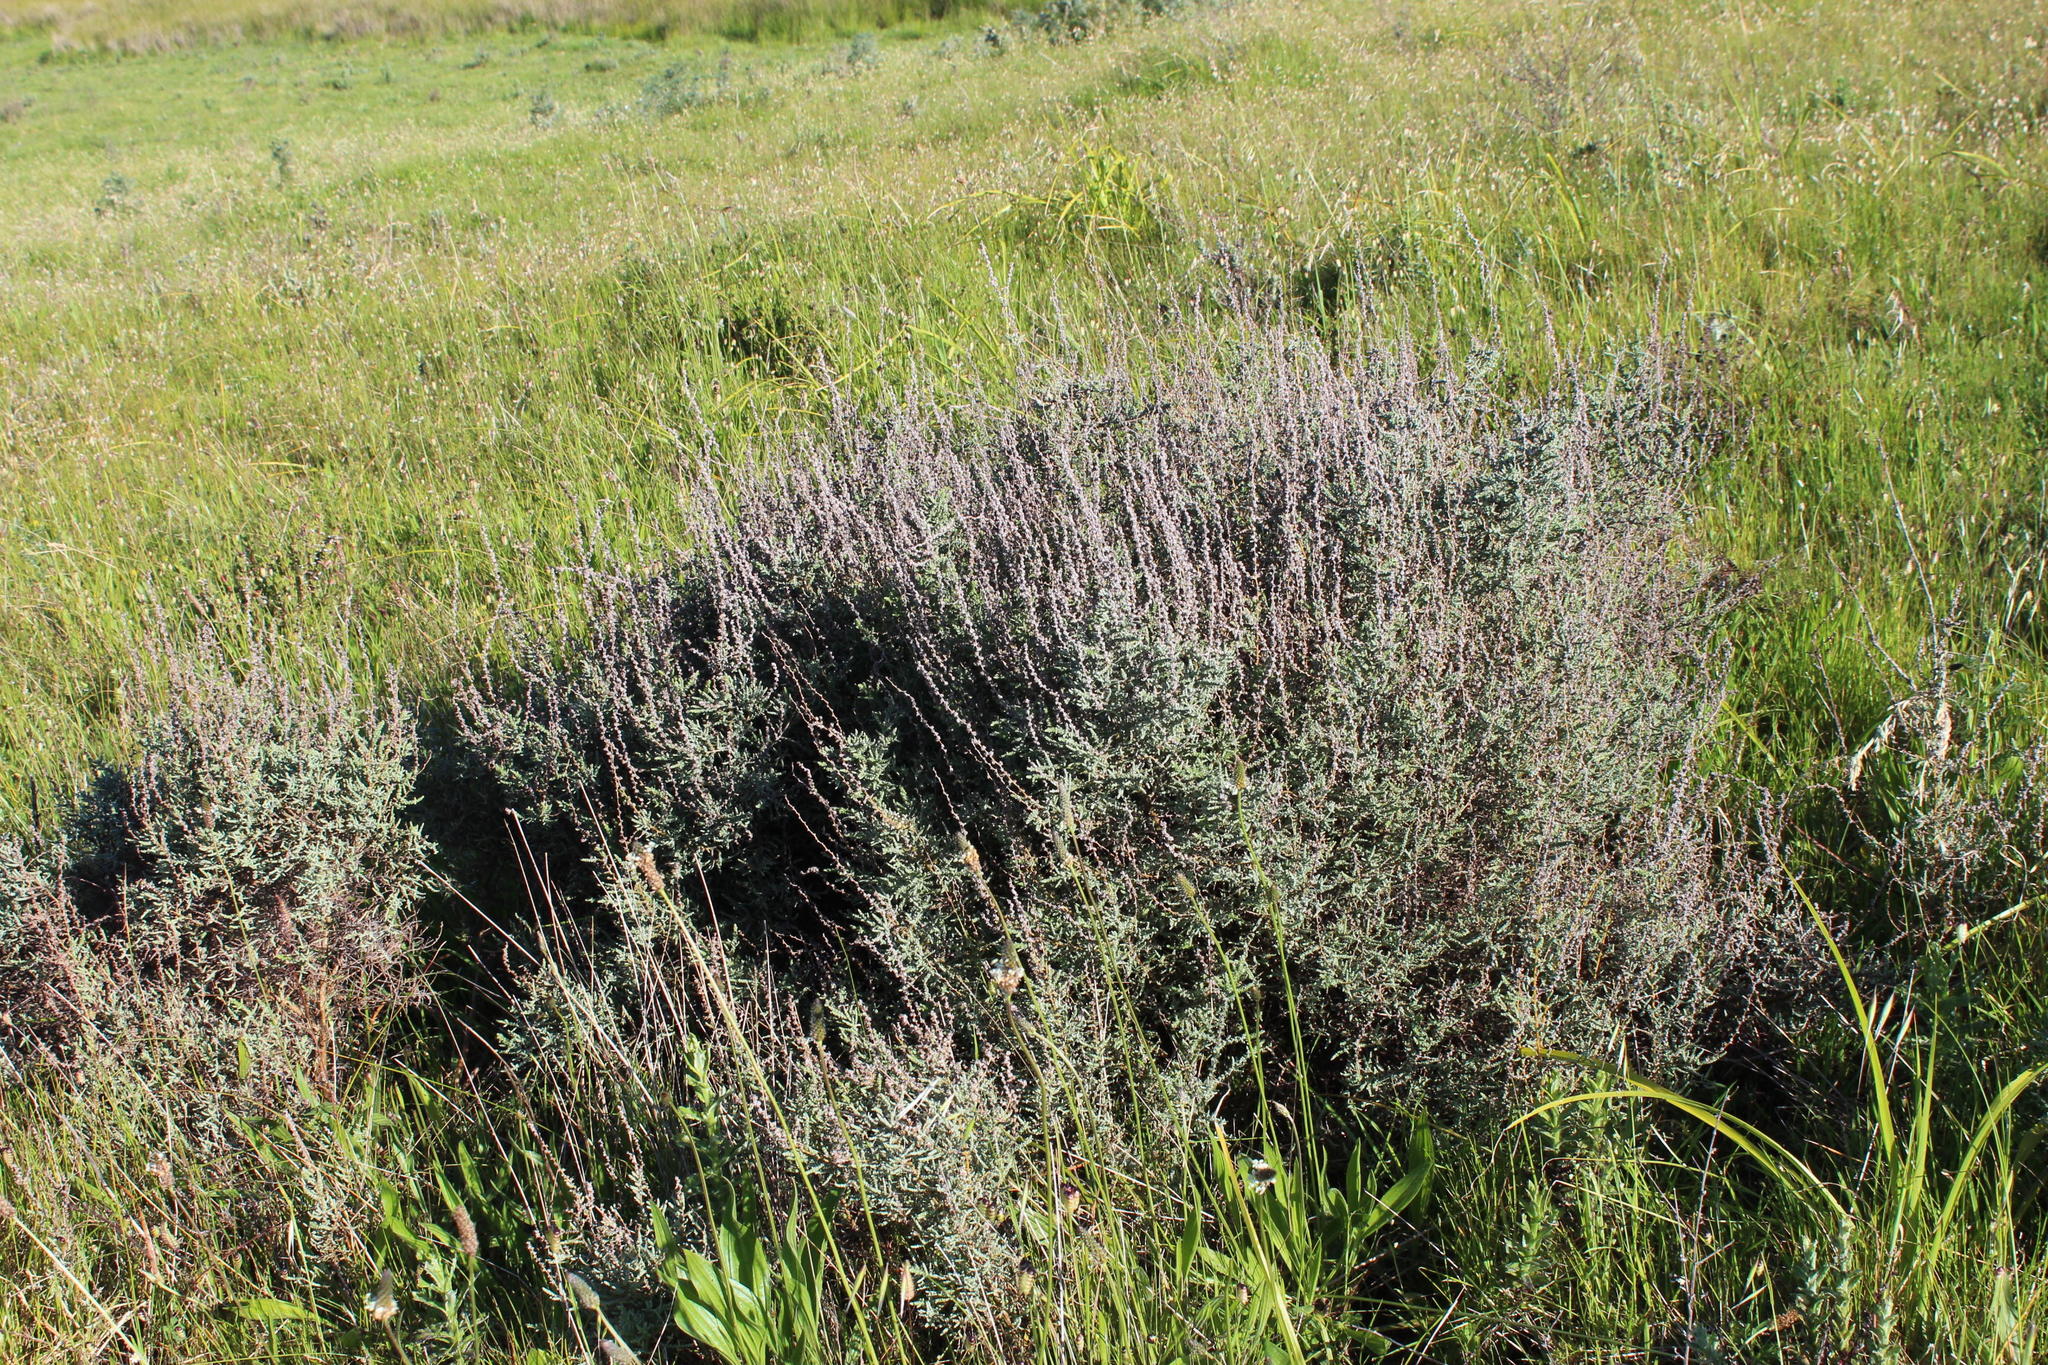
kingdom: Plantae
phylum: Tracheophyta
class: Magnoliopsida
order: Asterales
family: Asteraceae
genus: Seriphium
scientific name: Seriphium plumosum
